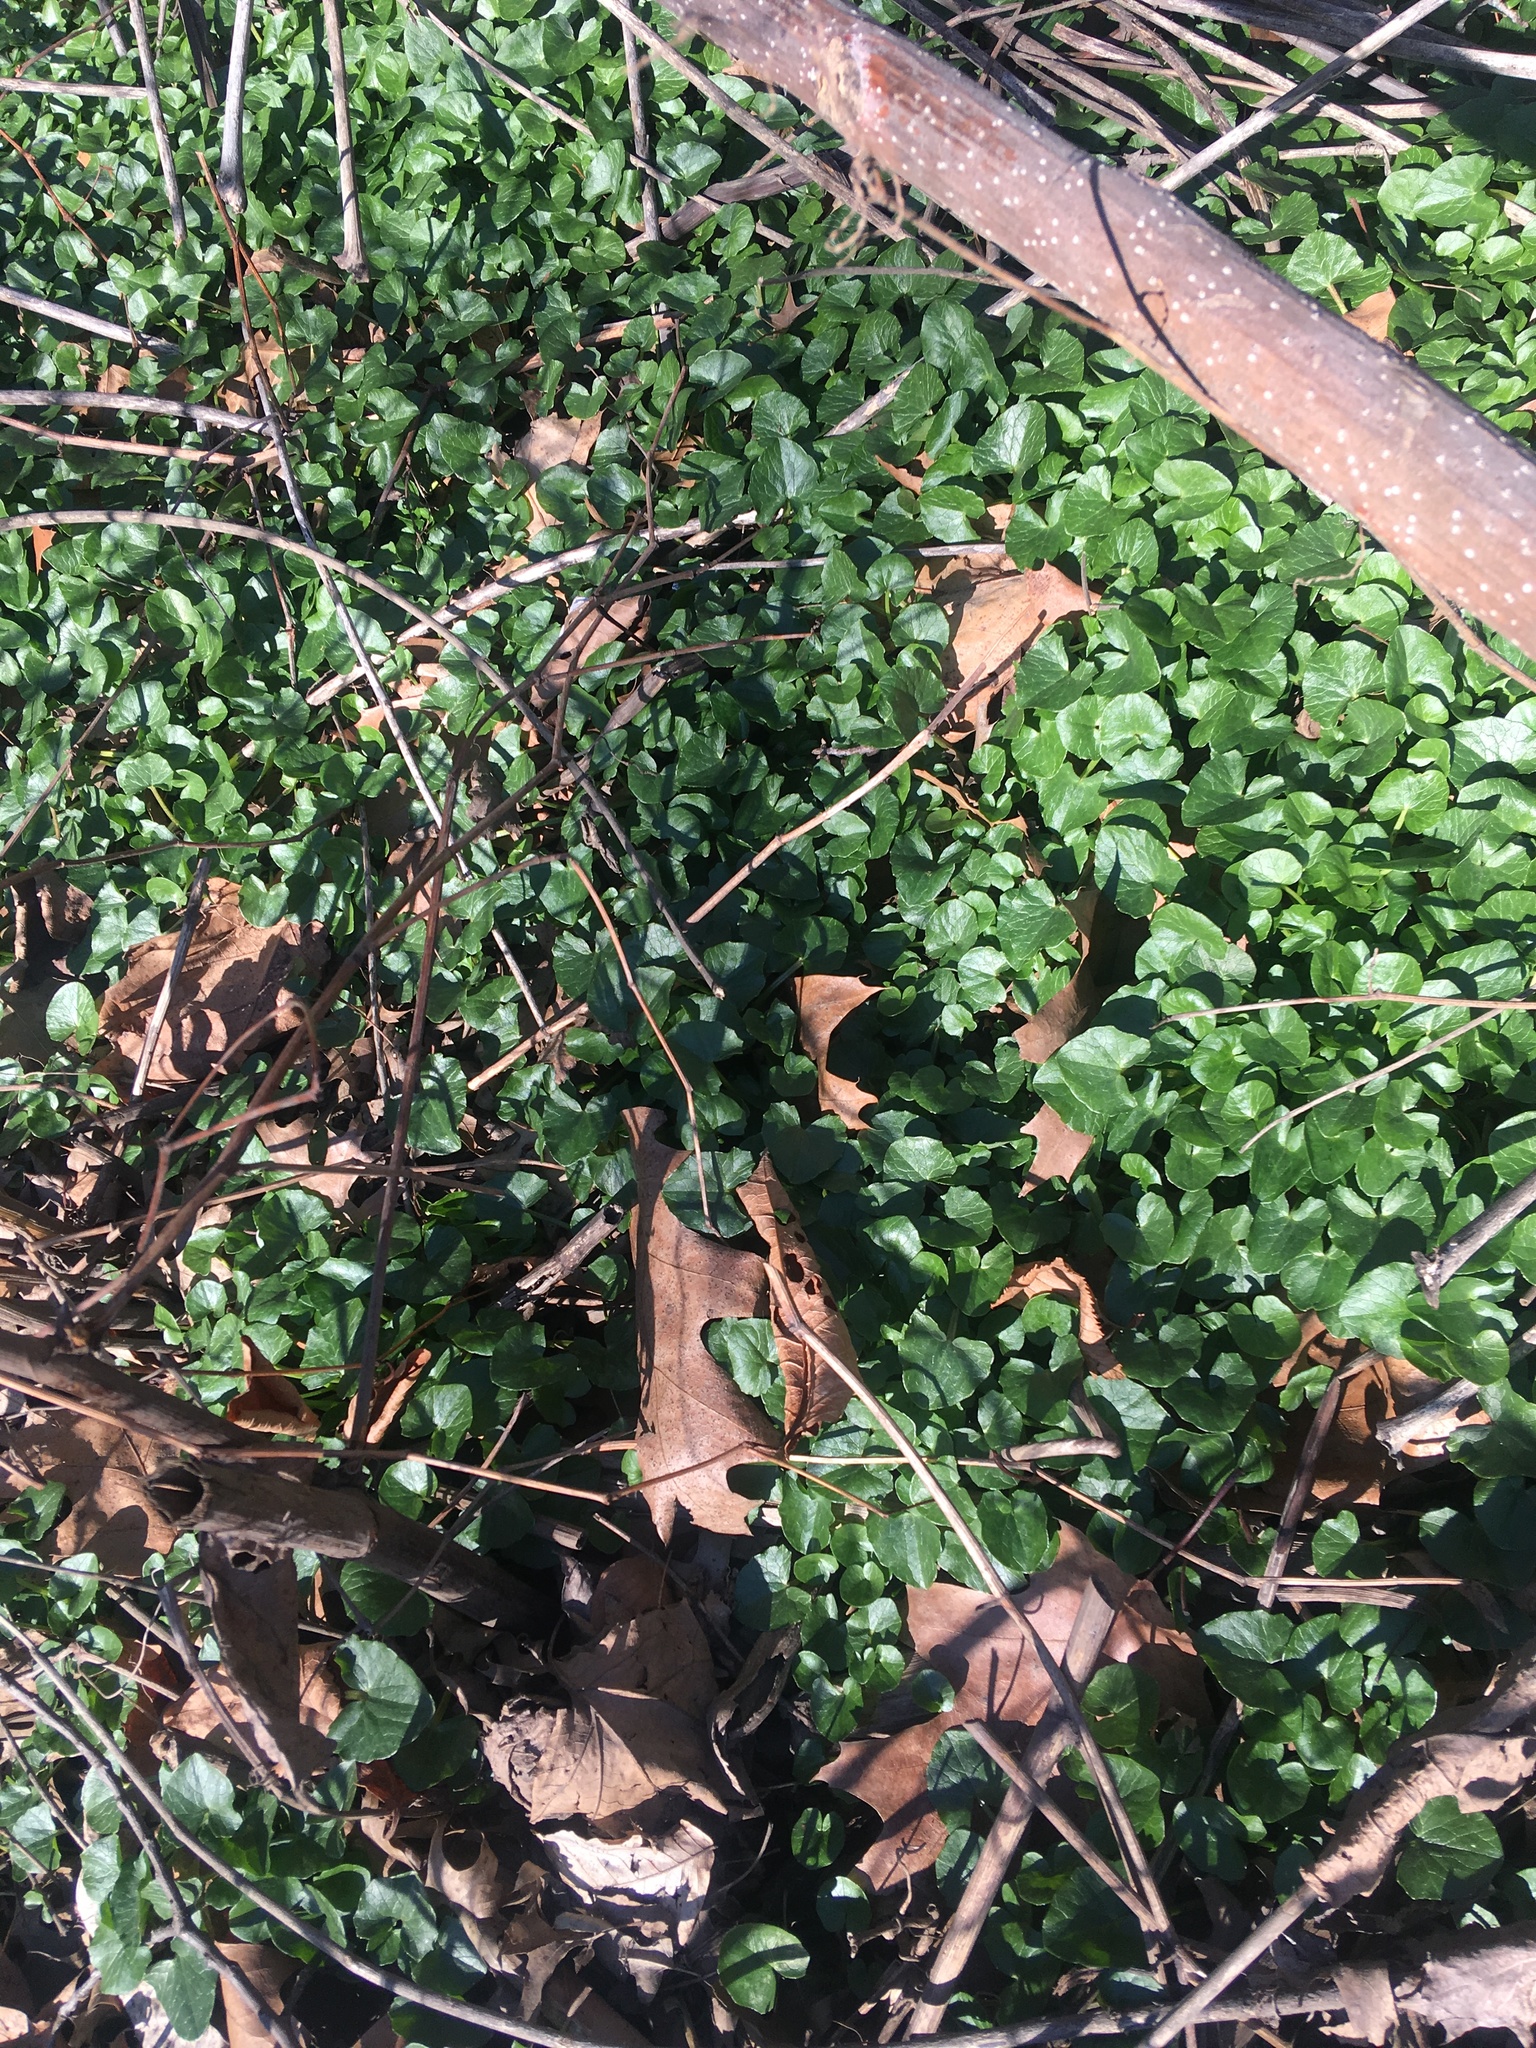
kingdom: Plantae
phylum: Tracheophyta
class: Magnoliopsida
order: Ranunculales
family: Ranunculaceae
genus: Ficaria
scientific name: Ficaria verna
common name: Lesser celandine
